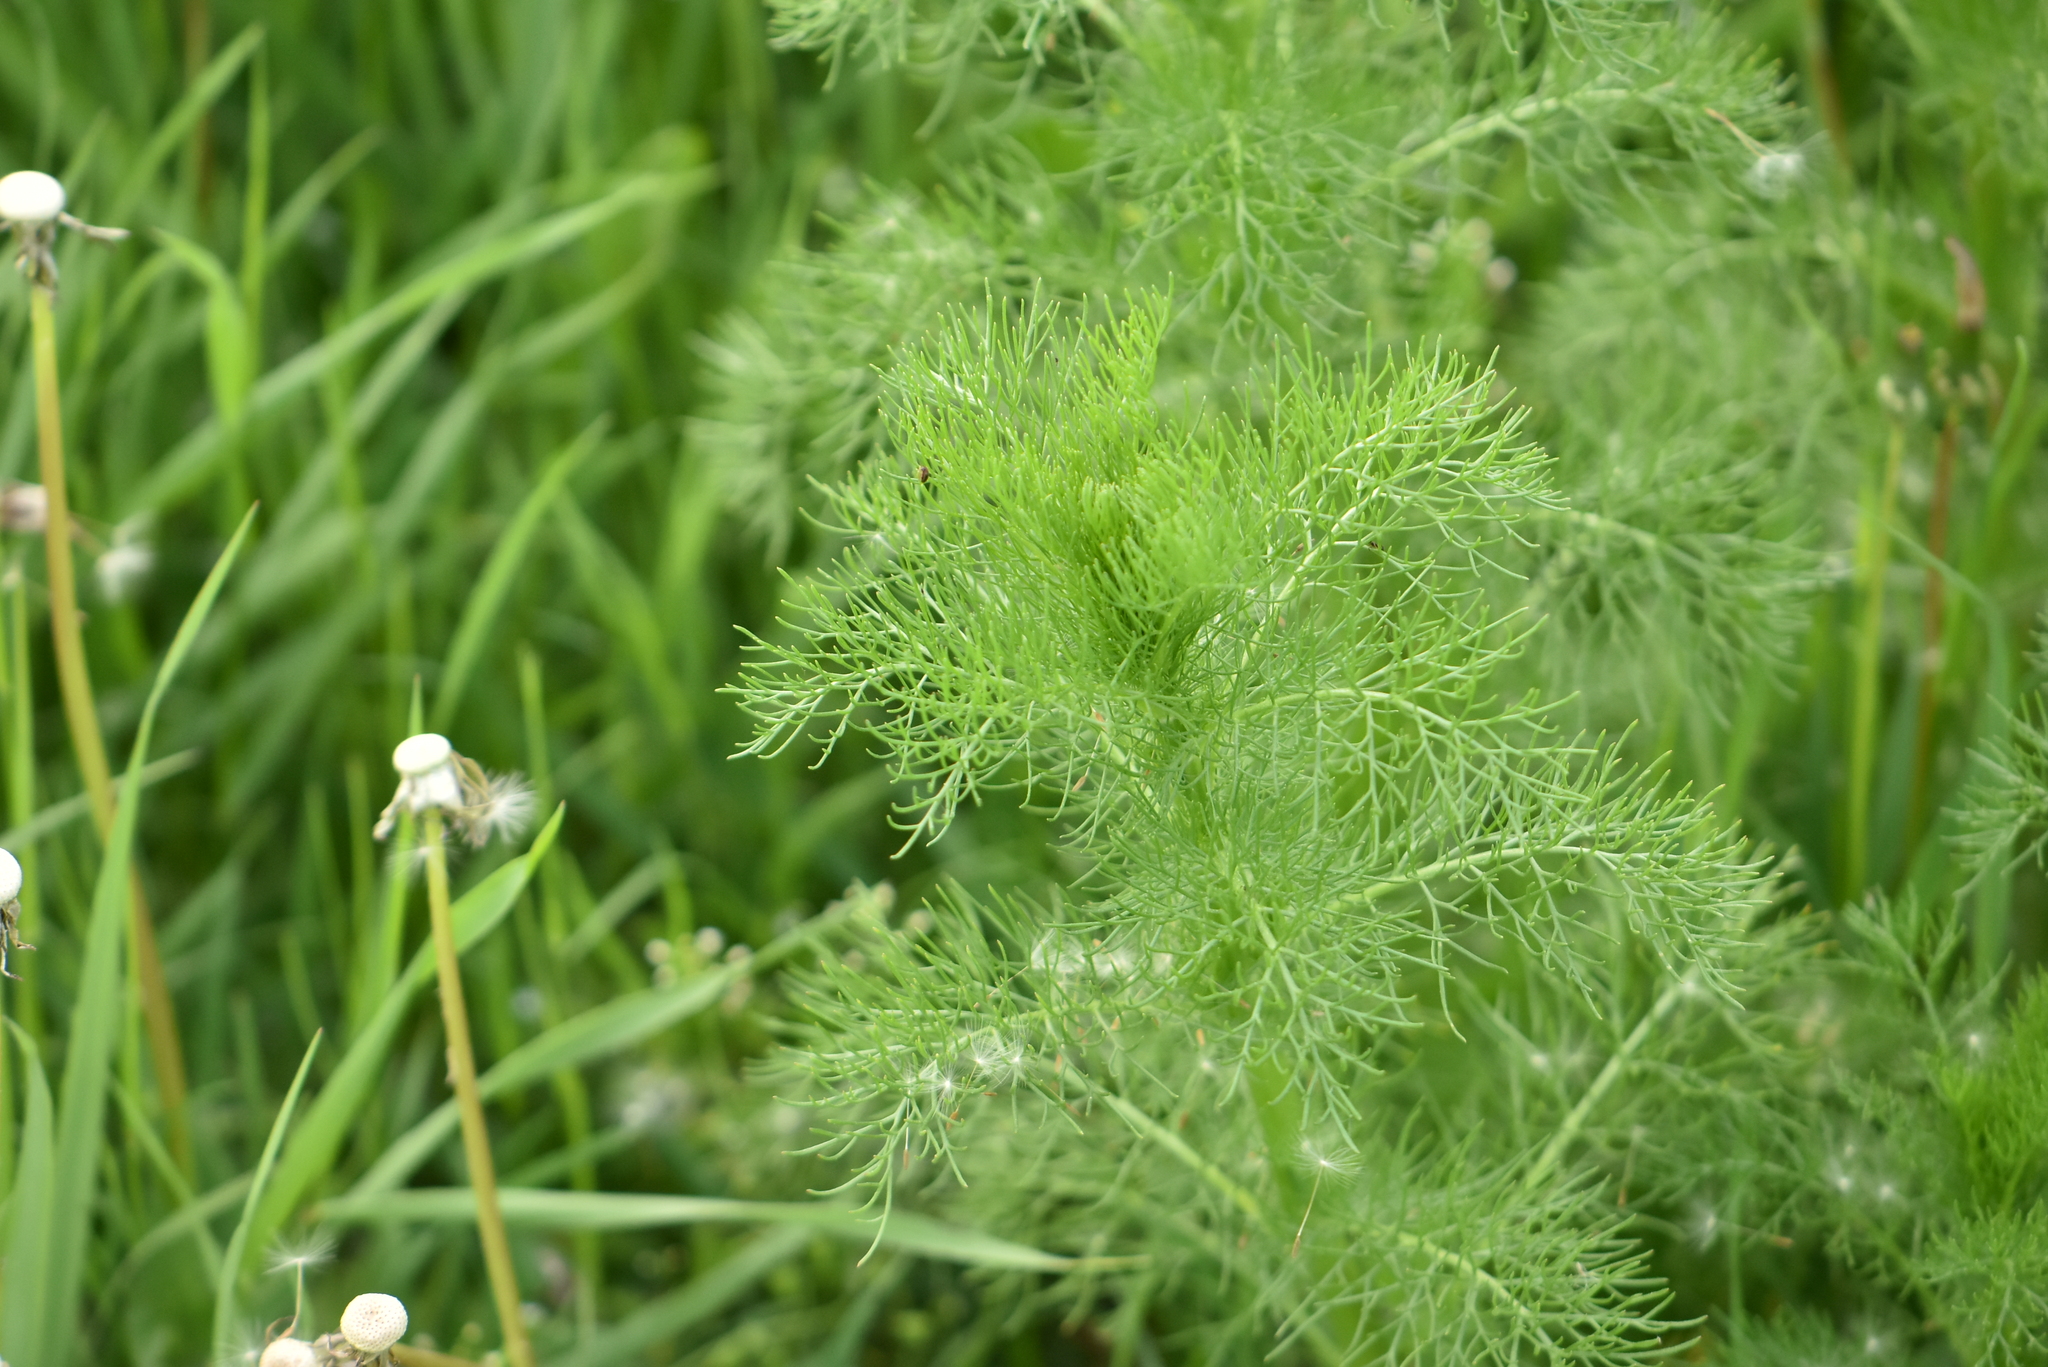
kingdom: Plantae
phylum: Tracheophyta
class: Magnoliopsida
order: Asterales
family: Asteraceae
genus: Tripleurospermum
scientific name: Tripleurospermum inodorum
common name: Scentless mayweed
